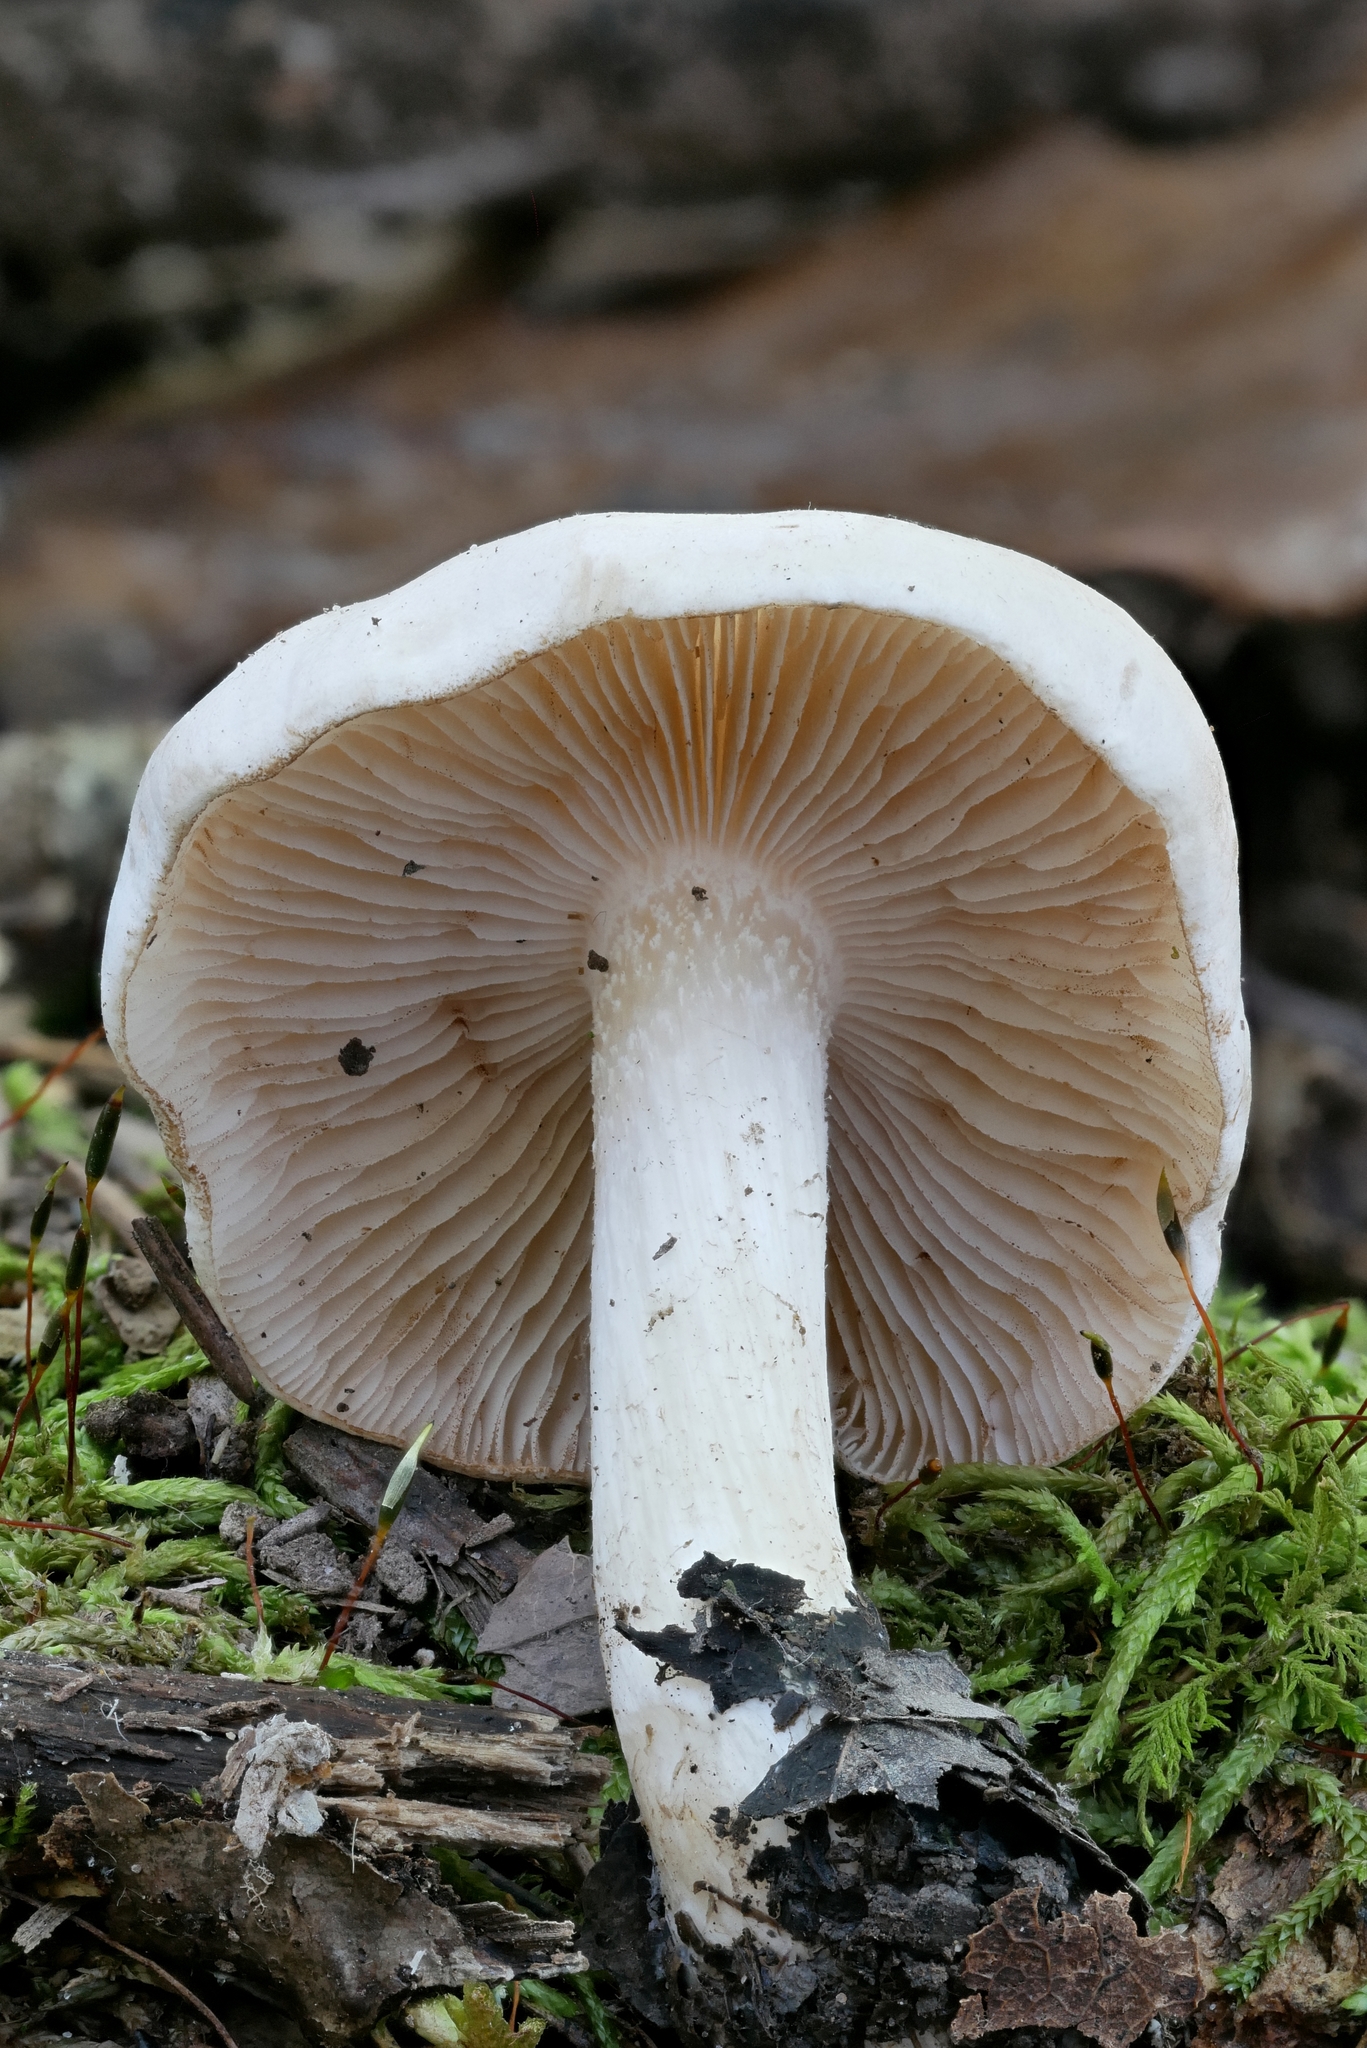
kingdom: Fungi
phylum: Basidiomycota
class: Agaricomycetes
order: Agaricales
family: Hymenogastraceae
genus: Hebeloma
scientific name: Hebeloma hiemale
